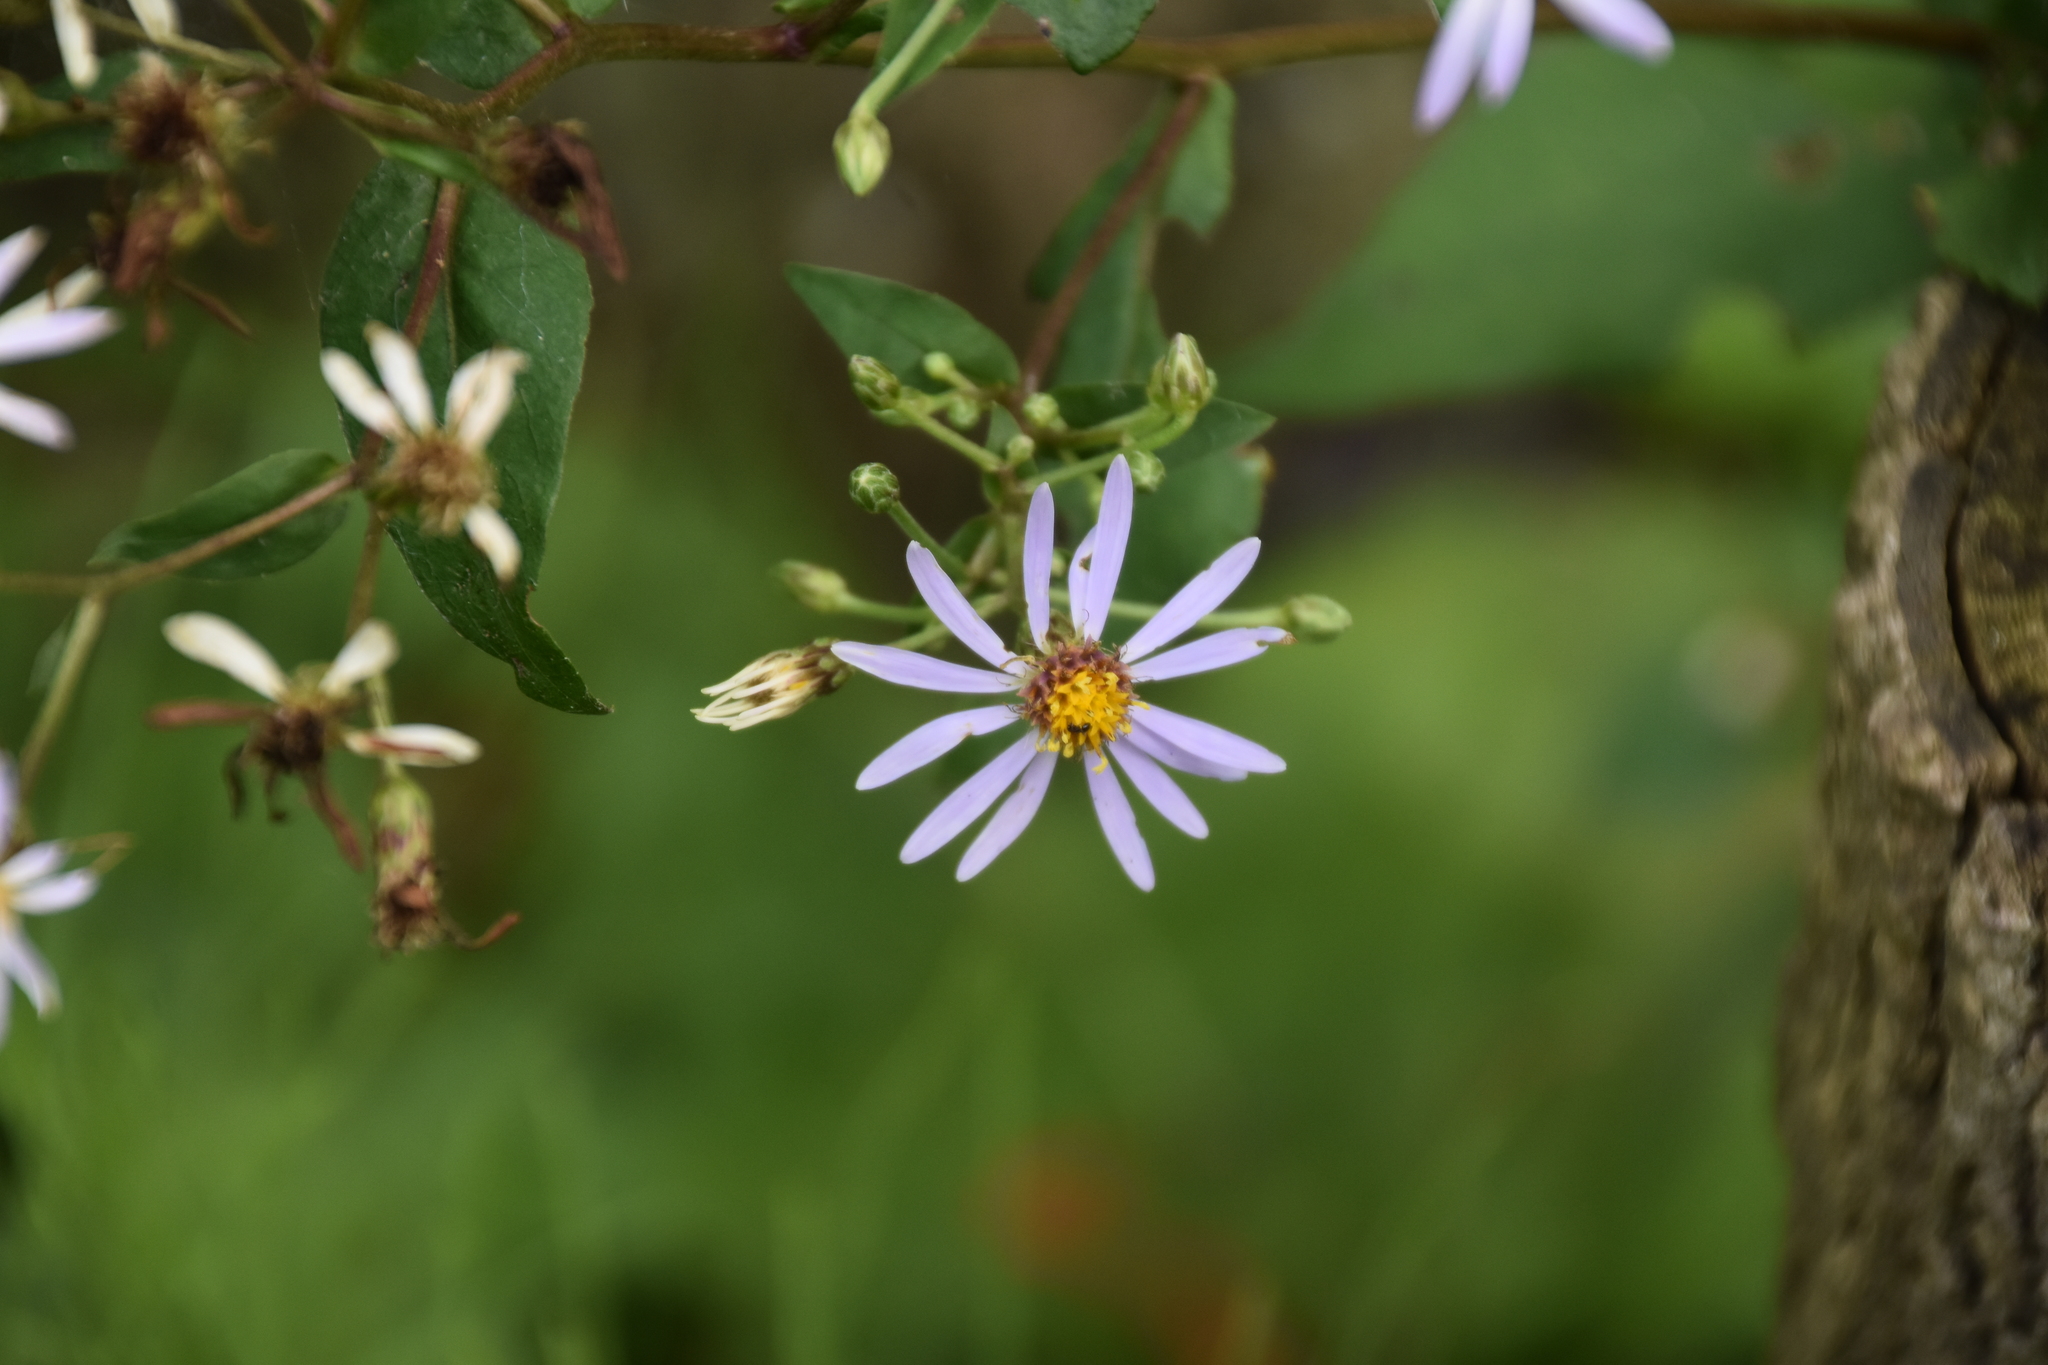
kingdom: Plantae
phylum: Tracheophyta
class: Magnoliopsida
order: Asterales
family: Asteraceae
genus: Eurybia
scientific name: Eurybia macrophylla
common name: Big-leaved aster
